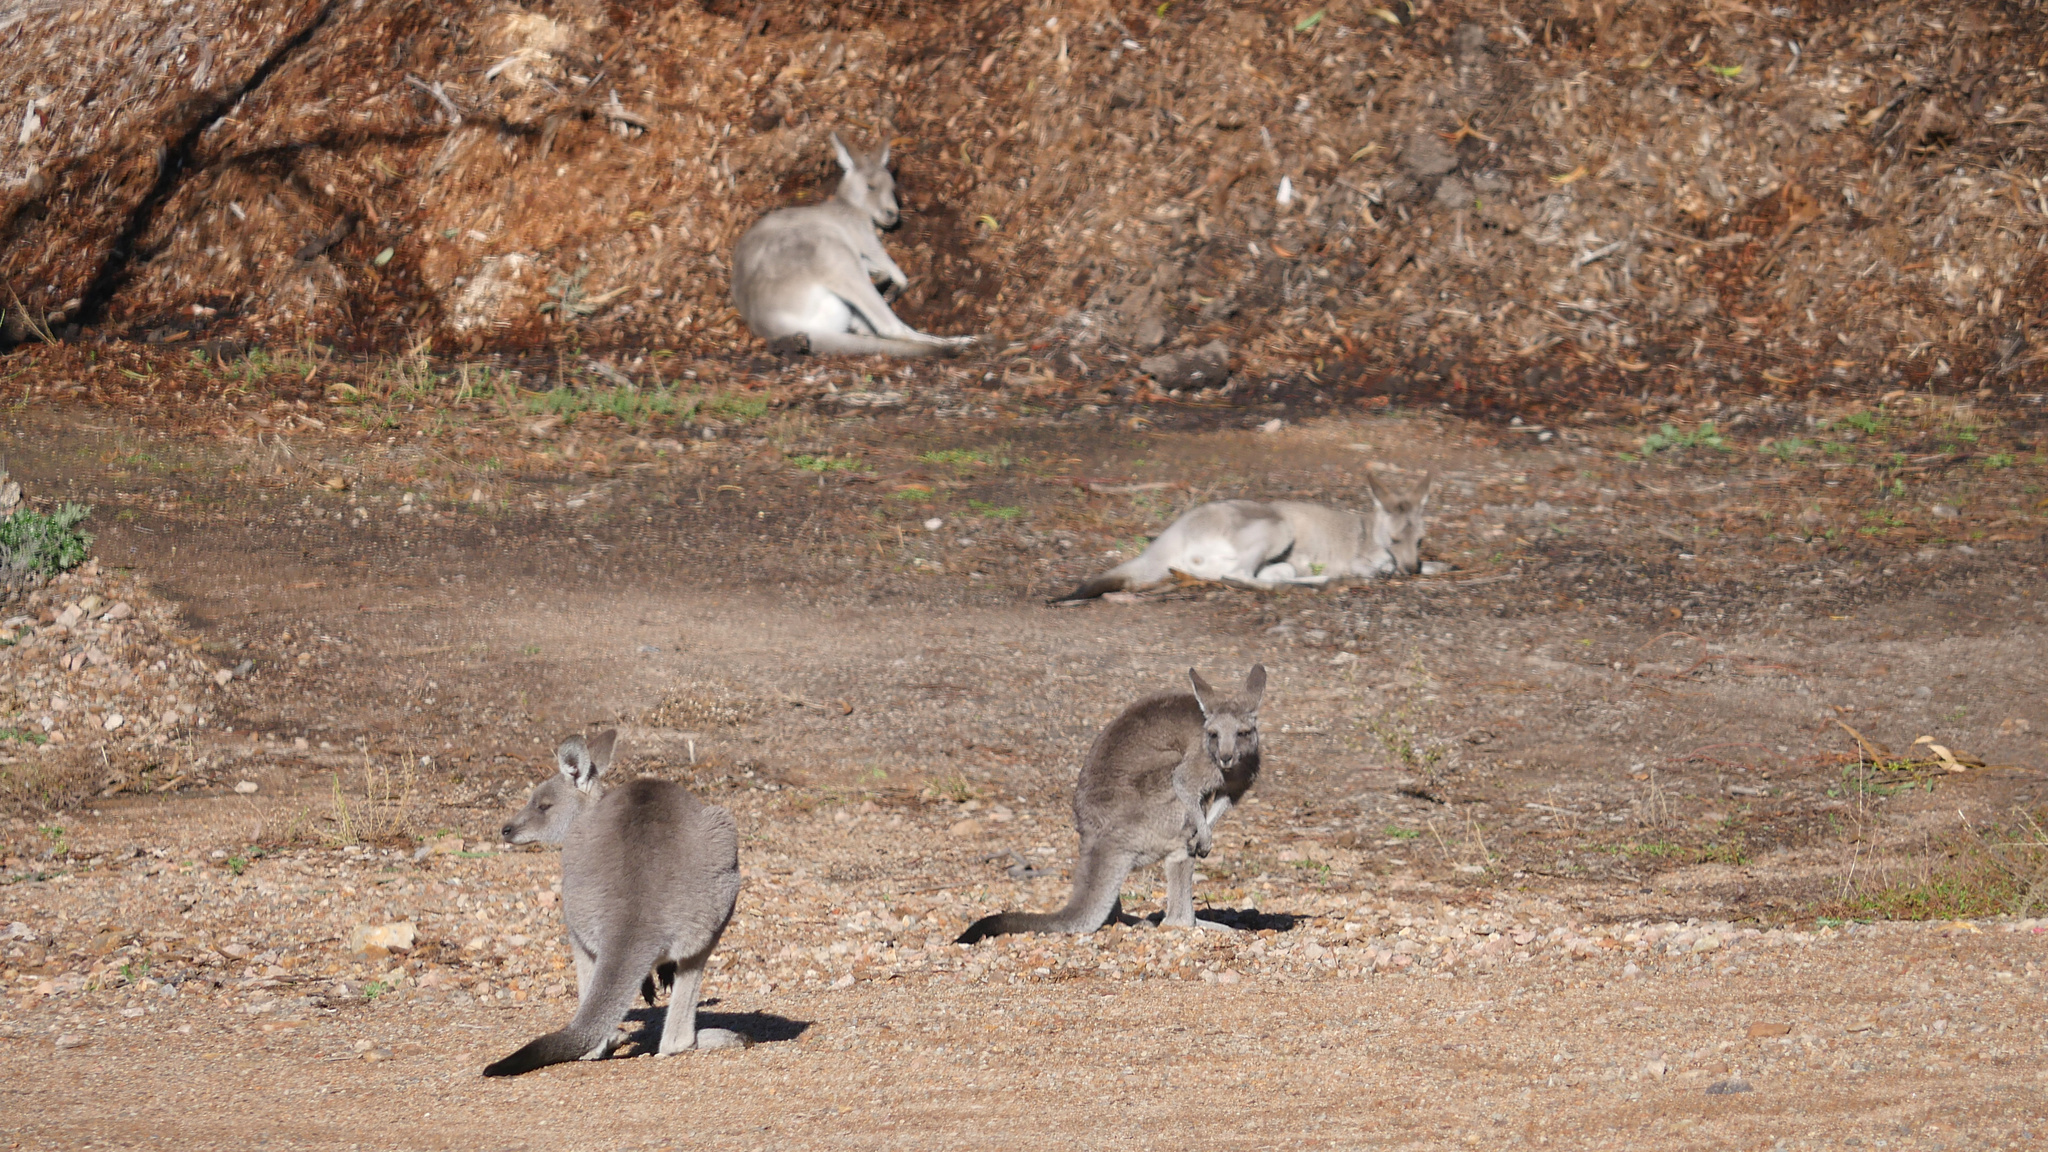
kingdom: Animalia
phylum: Chordata
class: Mammalia
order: Diprotodontia
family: Macropodidae
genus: Macropus
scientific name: Macropus giganteus
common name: Eastern grey kangaroo
